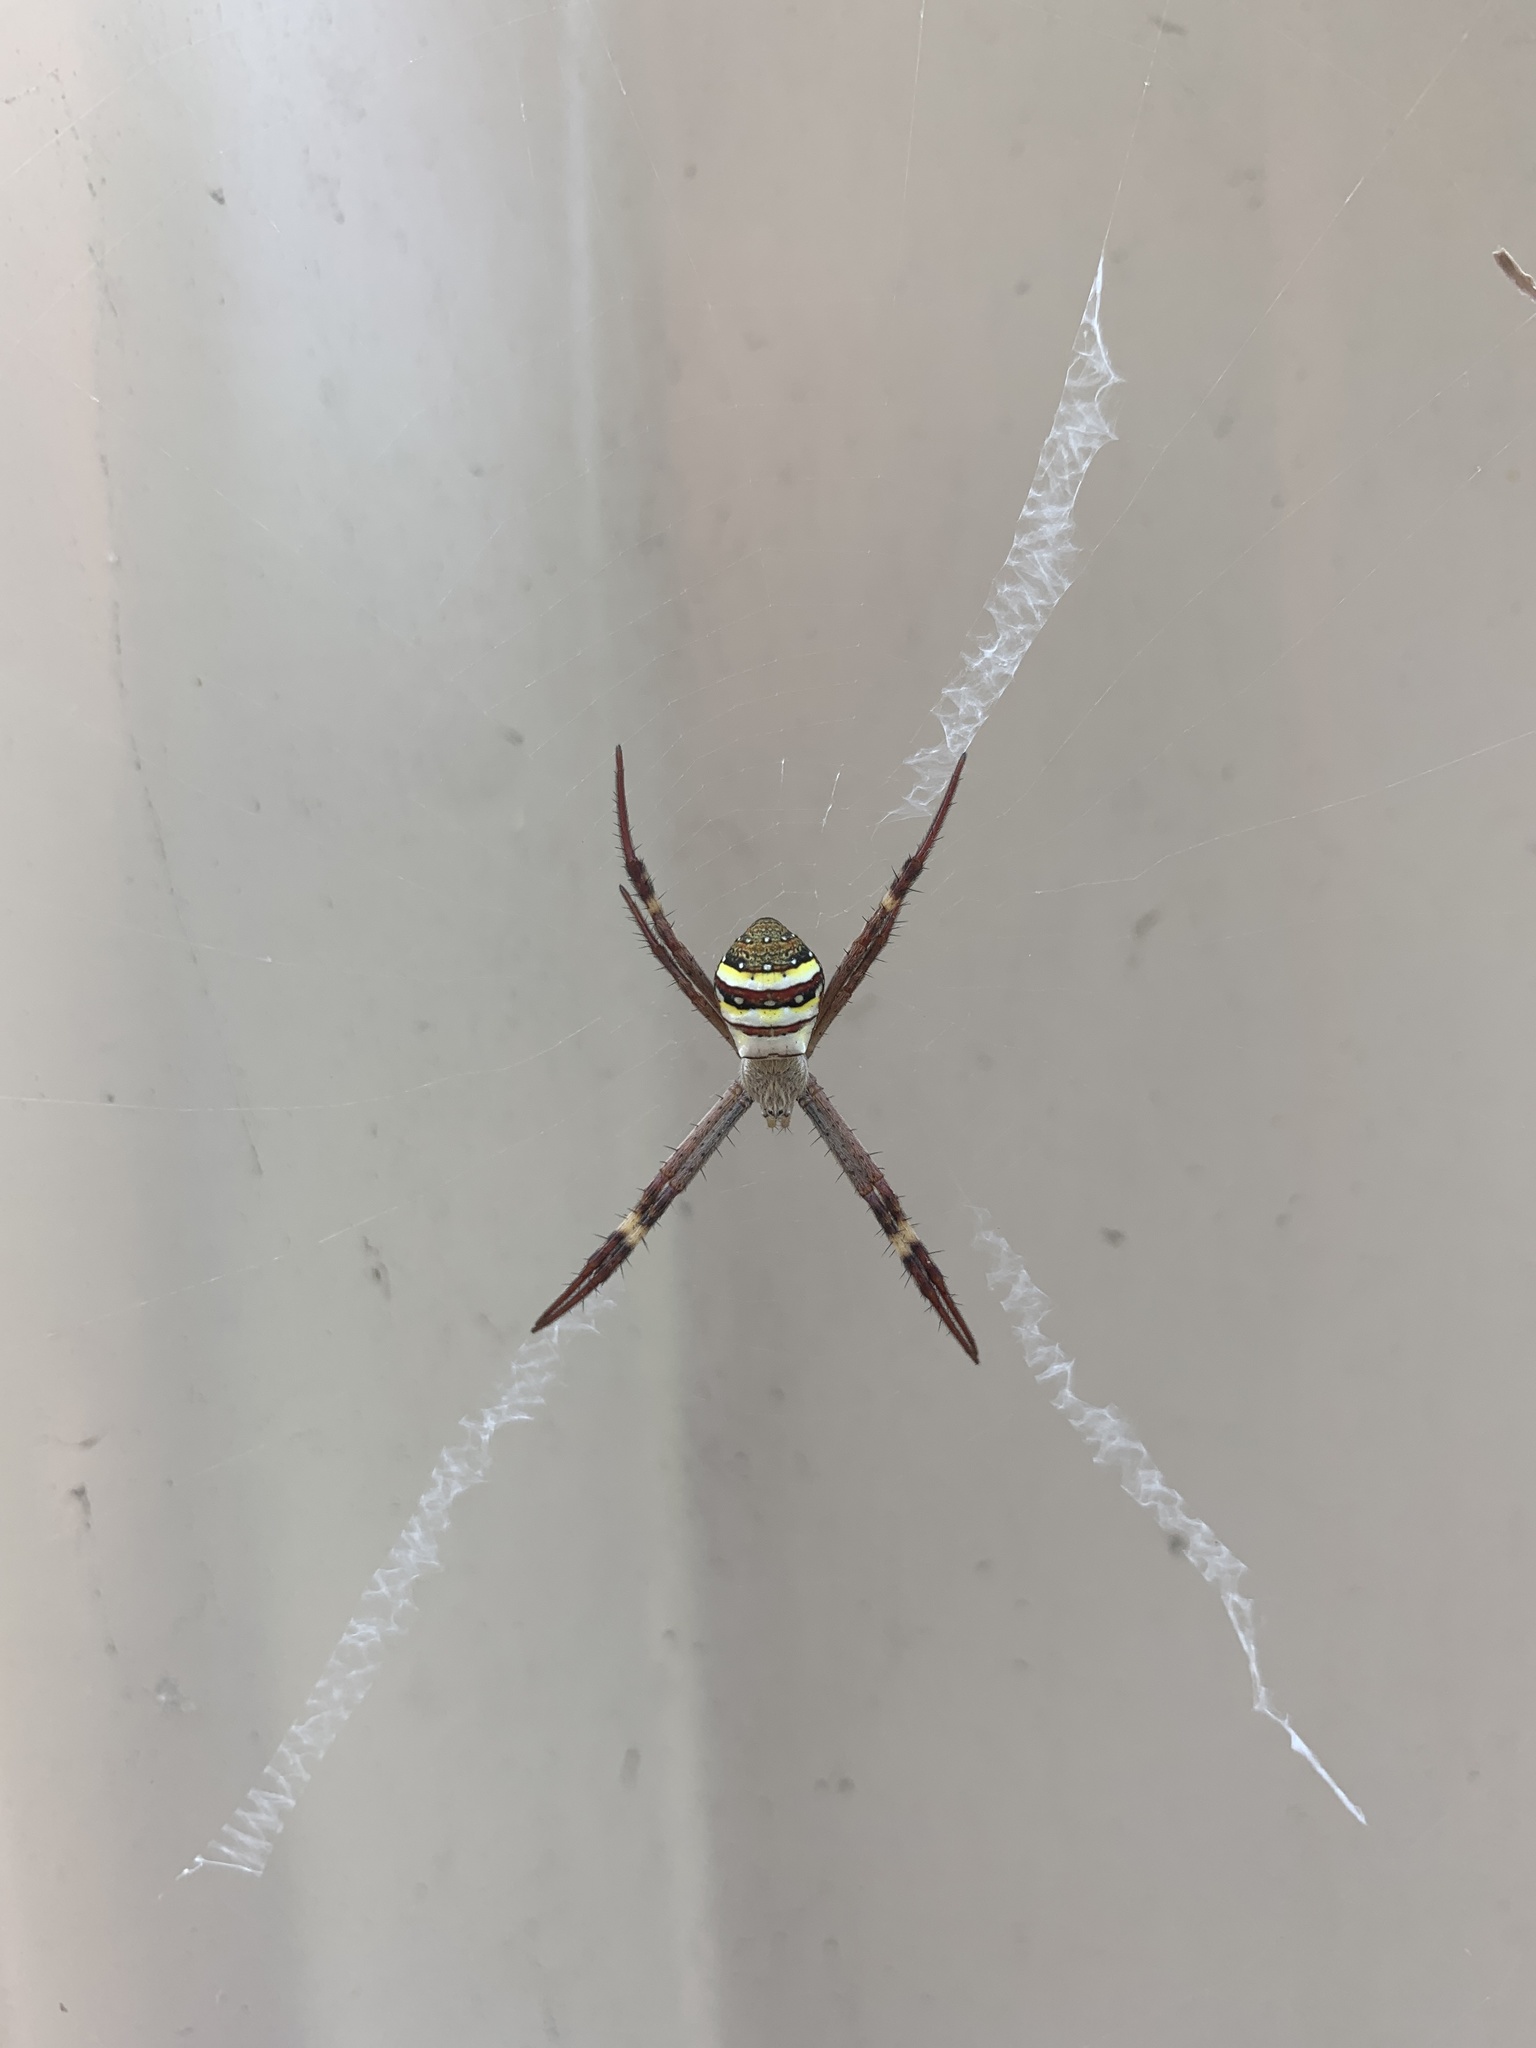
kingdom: Animalia
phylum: Arthropoda
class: Arachnida
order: Araneae
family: Araneidae
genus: Argiope
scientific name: Argiope keyserlingi
